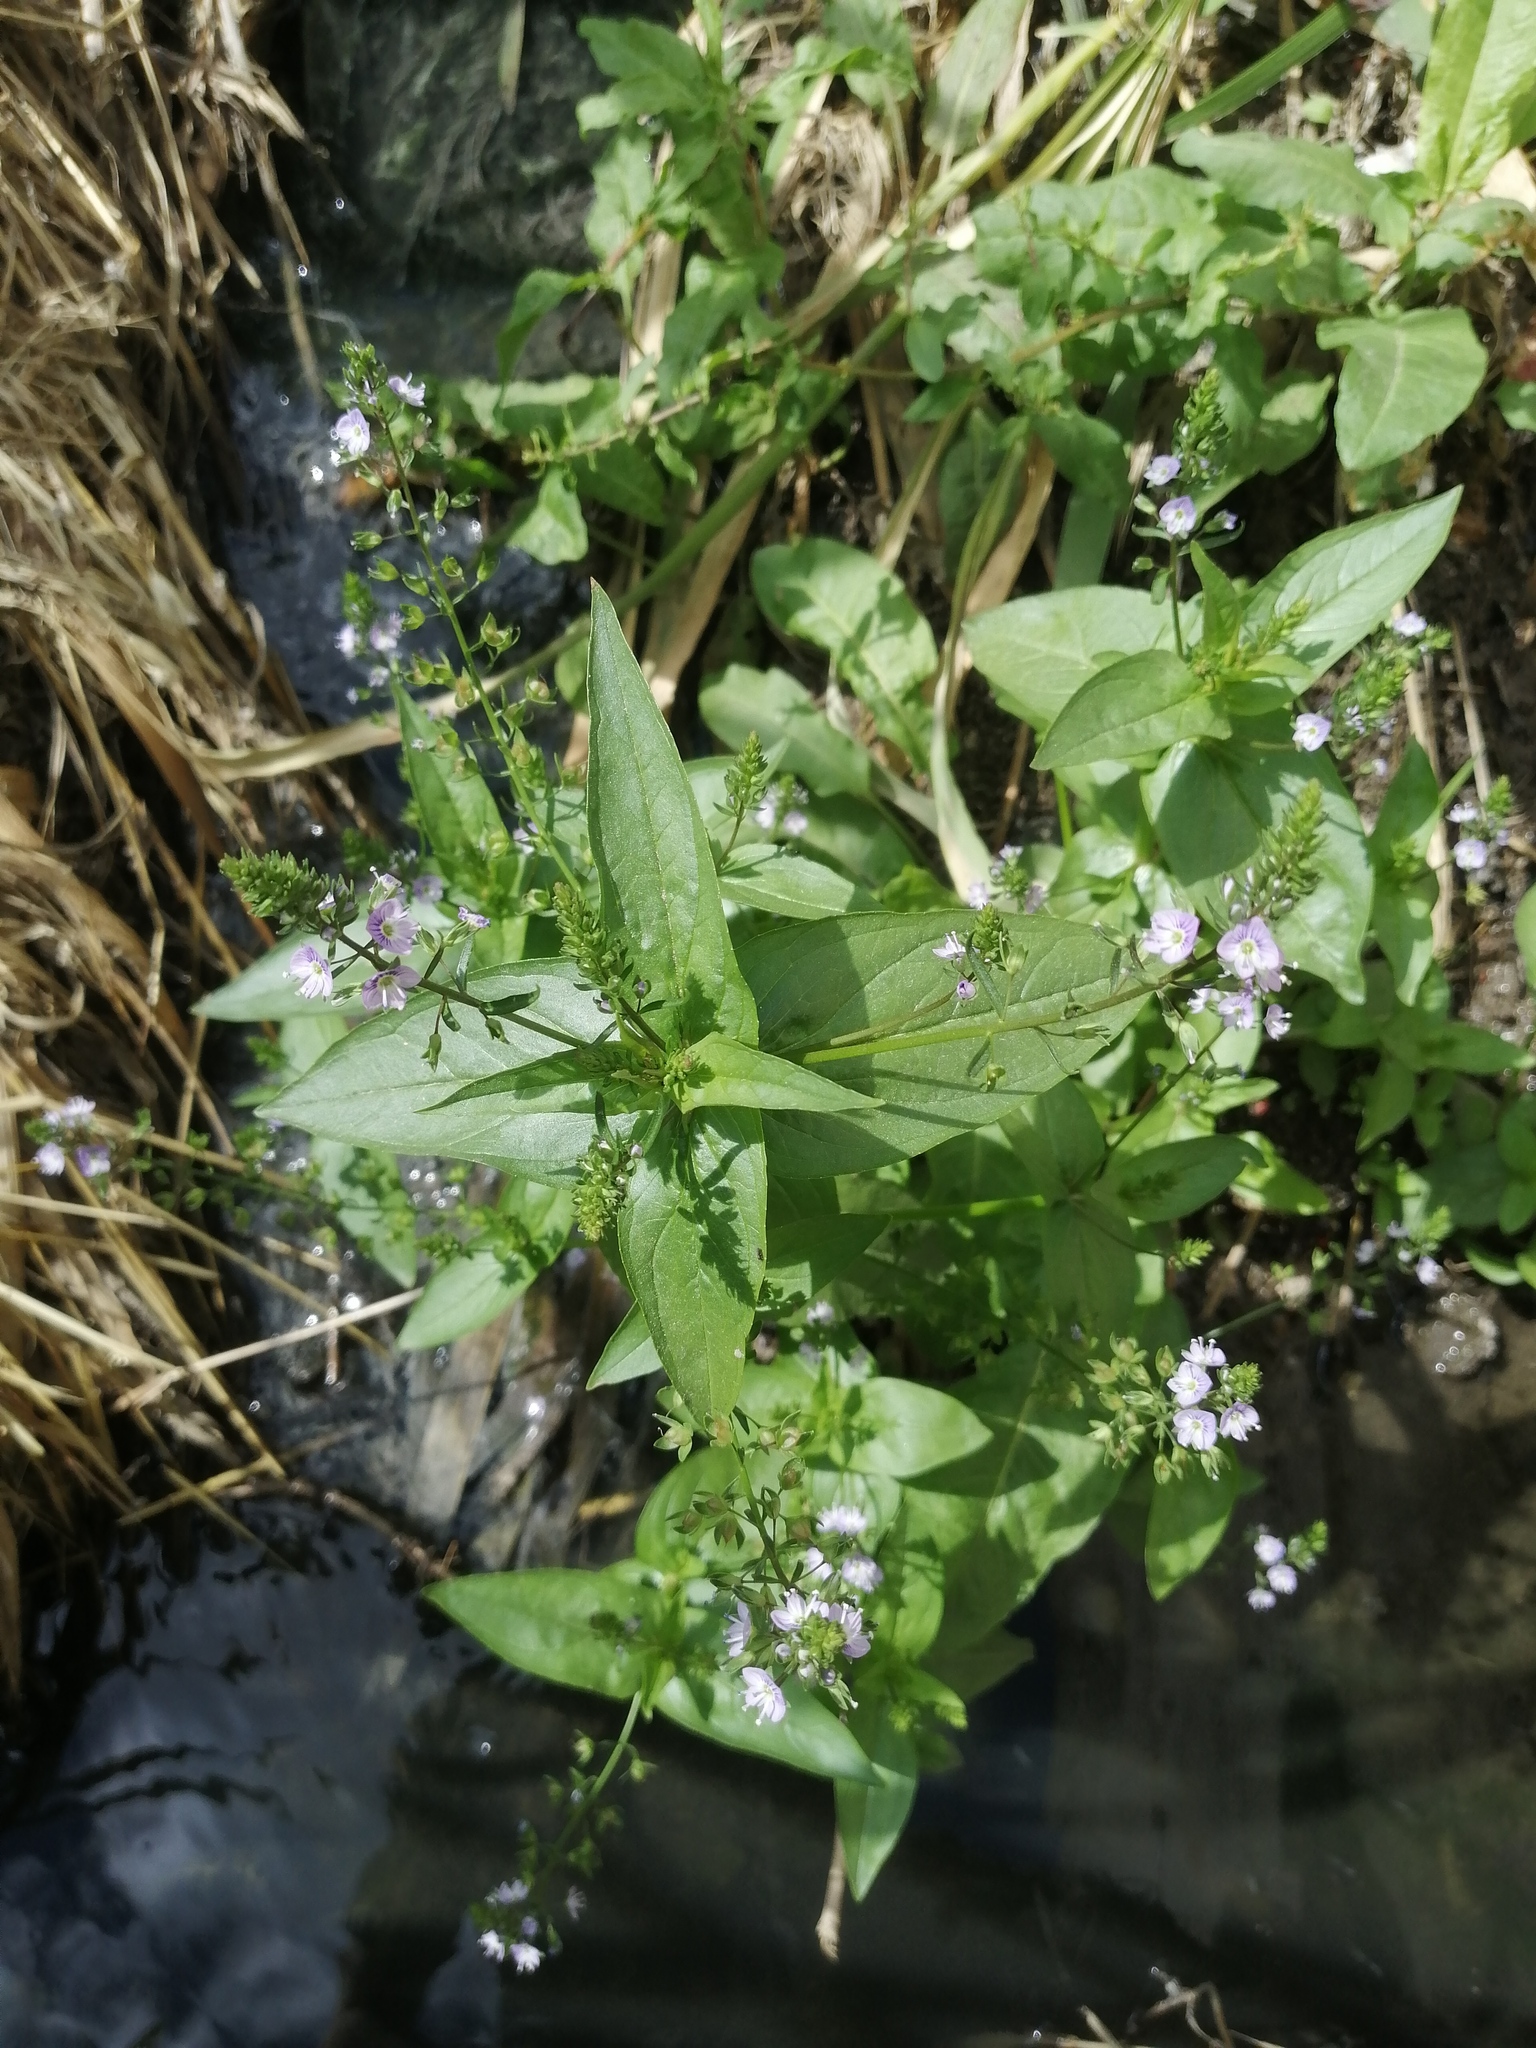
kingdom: Plantae
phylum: Tracheophyta
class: Magnoliopsida
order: Lamiales
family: Plantaginaceae
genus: Veronica
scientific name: Veronica anagallis-aquatica
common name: Water speedwell
